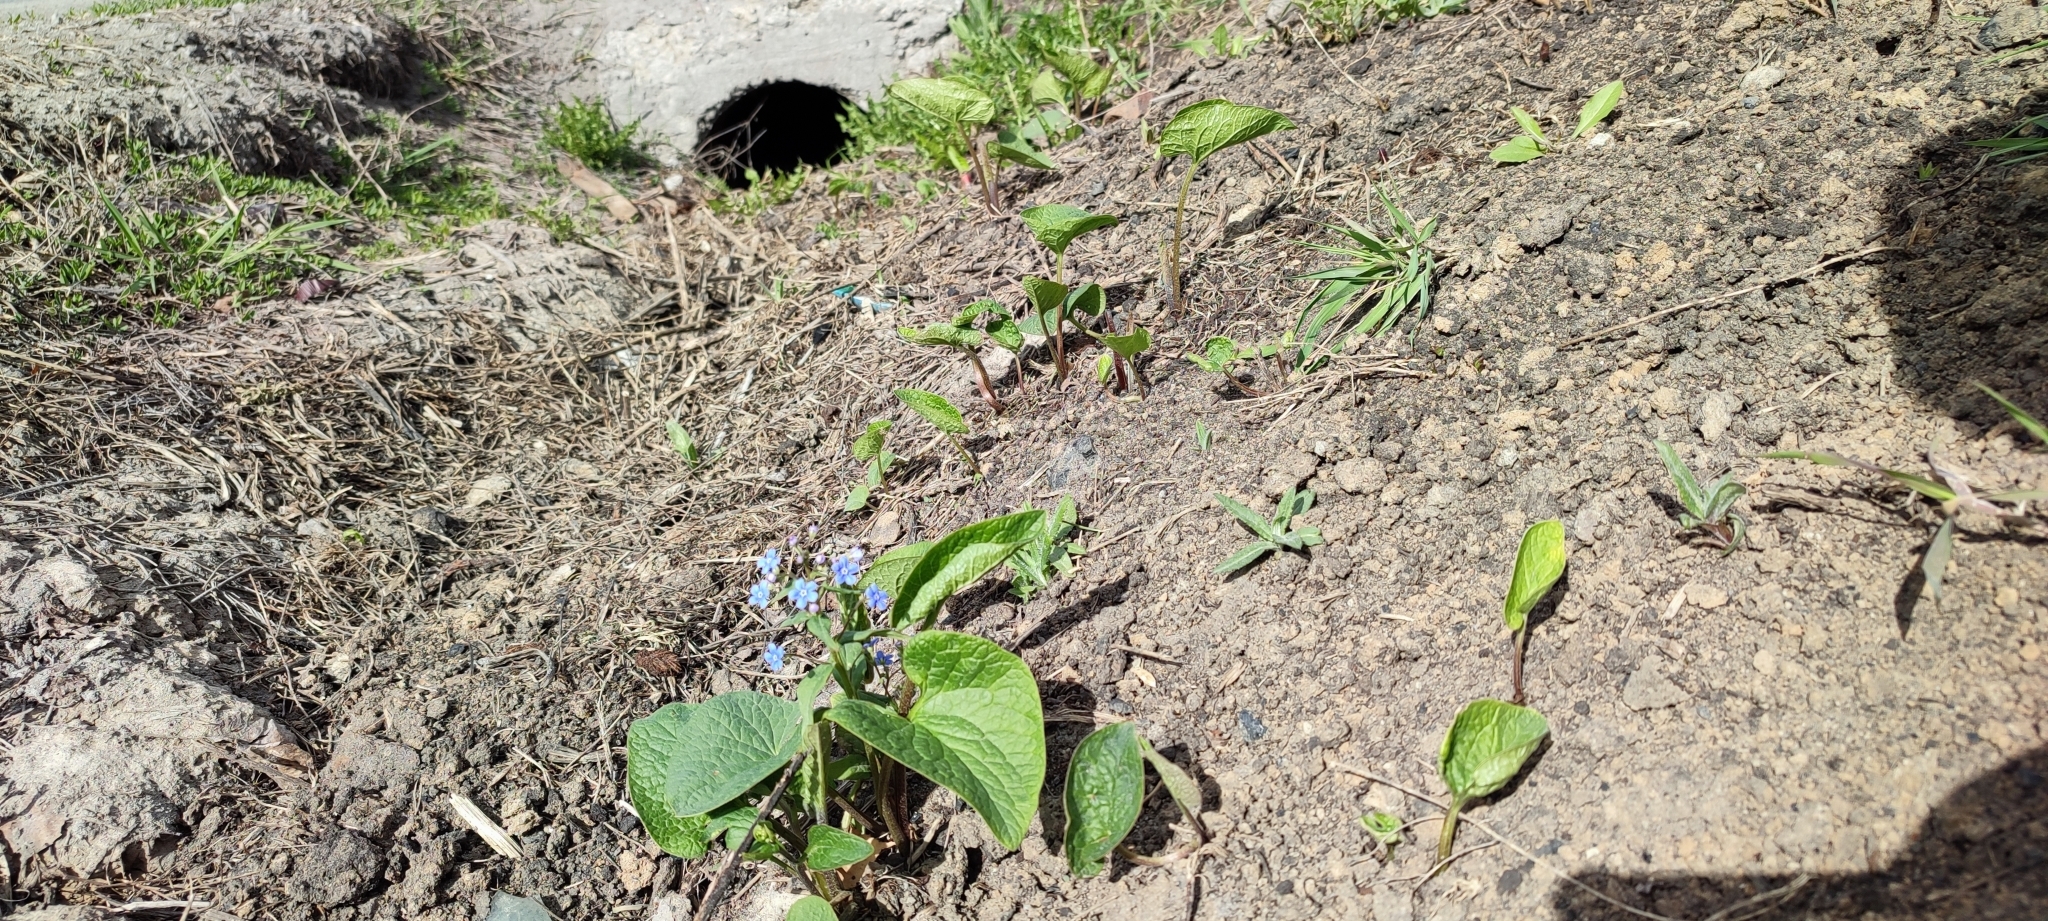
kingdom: Plantae
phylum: Tracheophyta
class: Magnoliopsida
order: Boraginales
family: Boraginaceae
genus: Brunnera
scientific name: Brunnera sibirica
